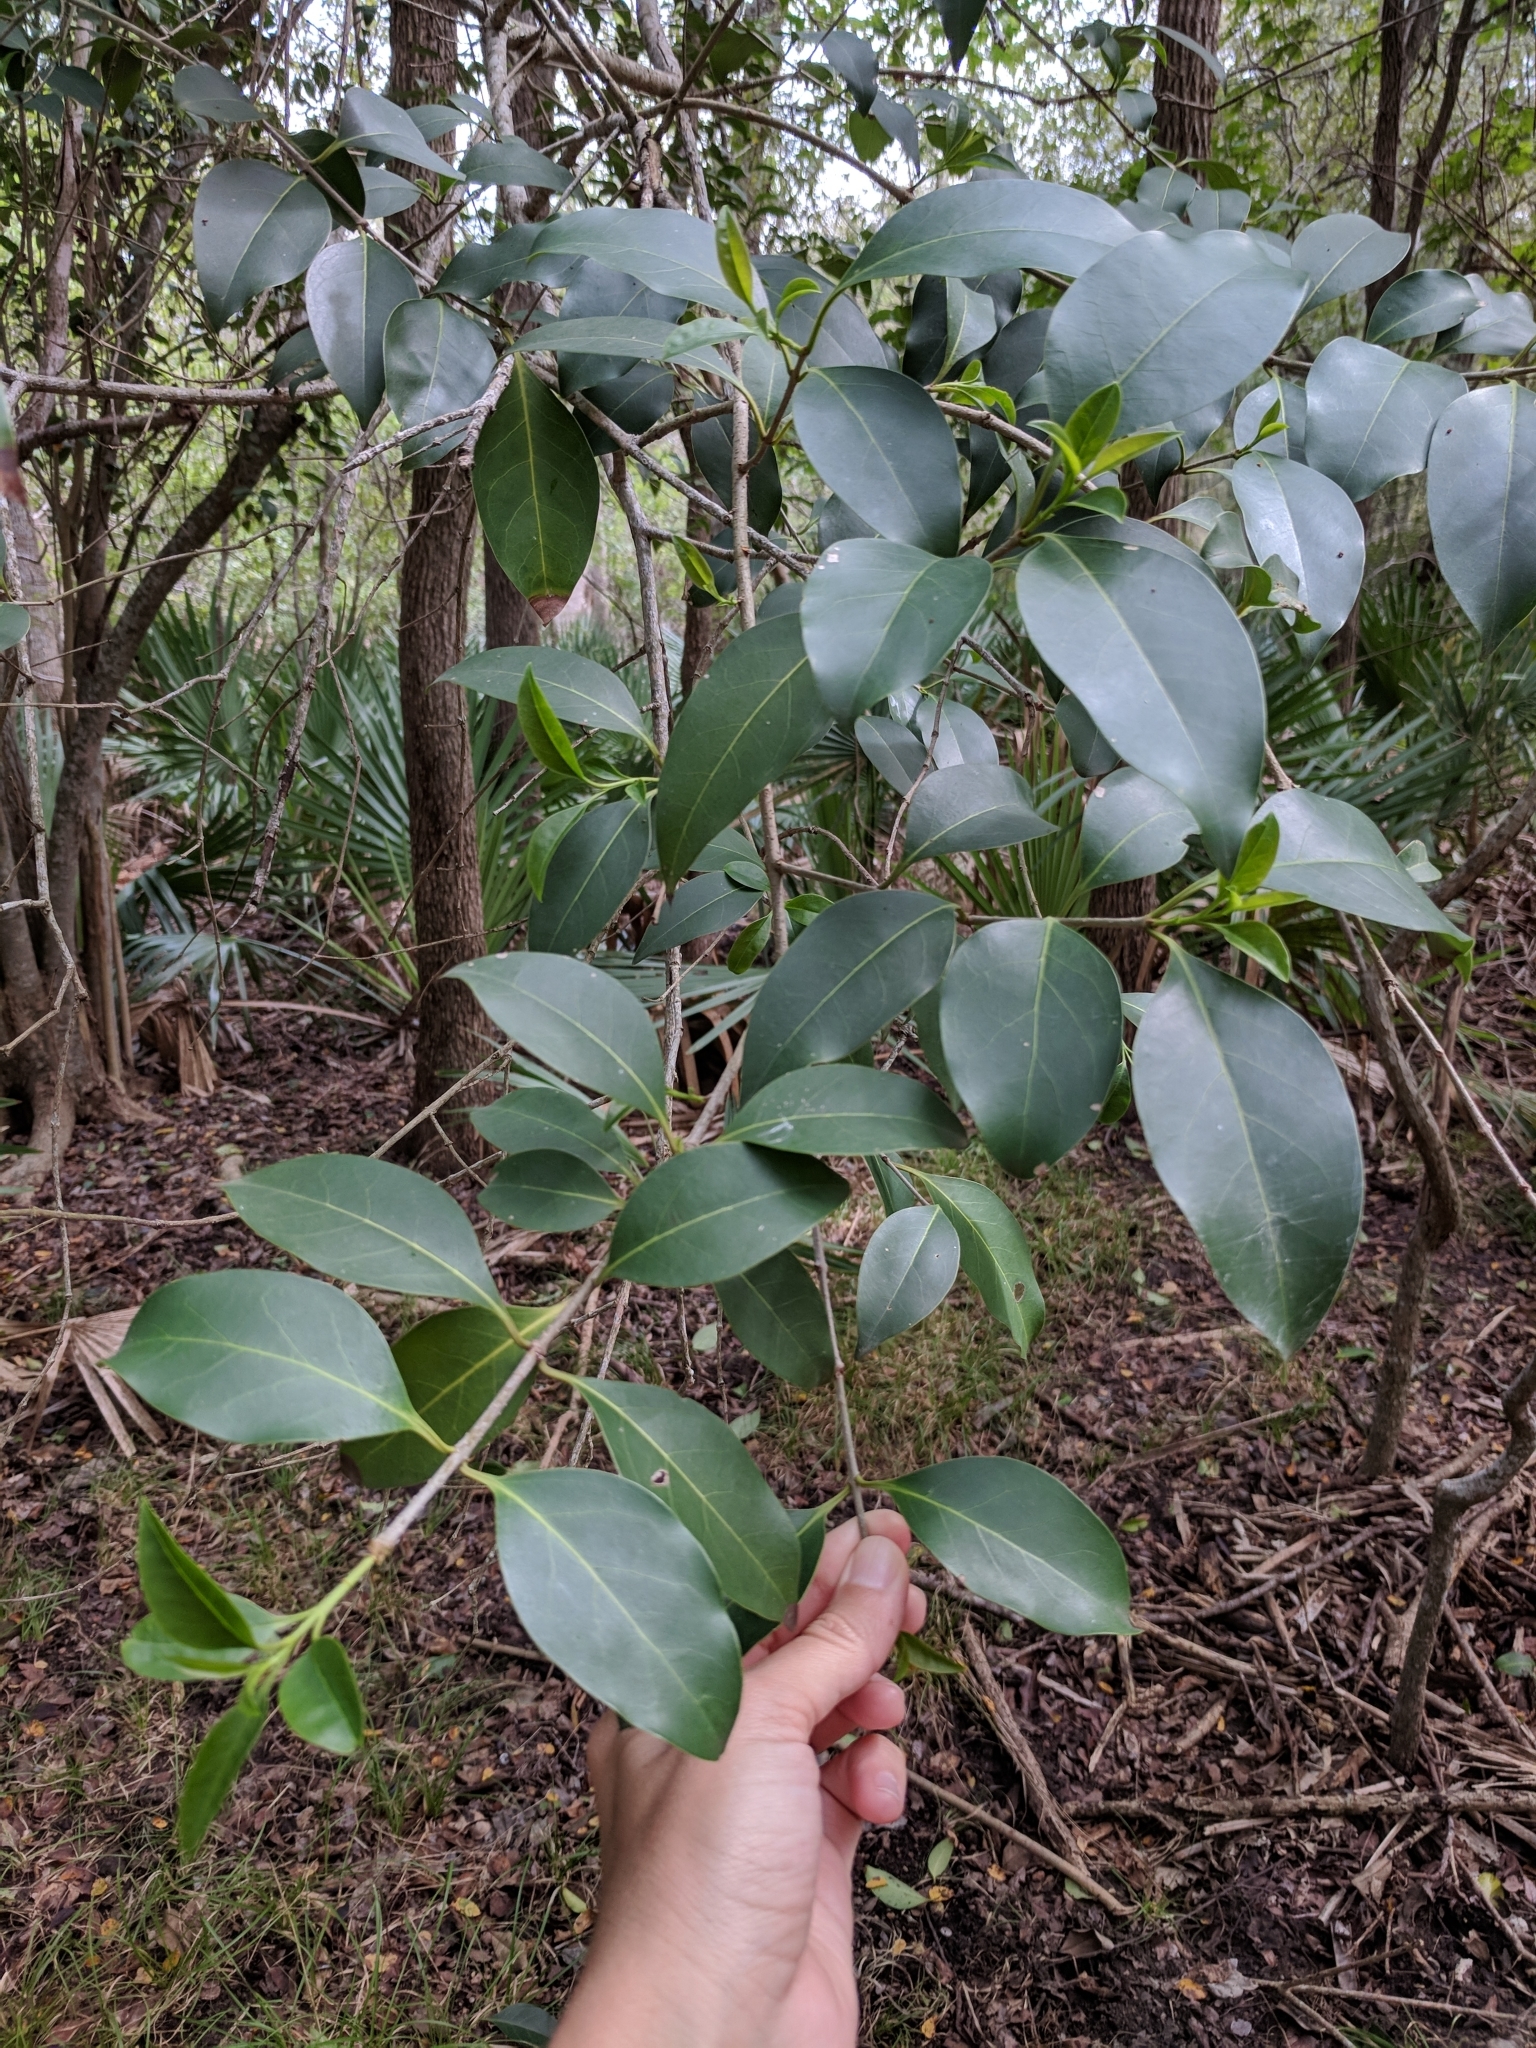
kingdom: Plantae
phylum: Tracheophyta
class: Magnoliopsida
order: Lamiales
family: Oleaceae
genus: Ligustrum
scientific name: Ligustrum lucidum
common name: Glossy privet
